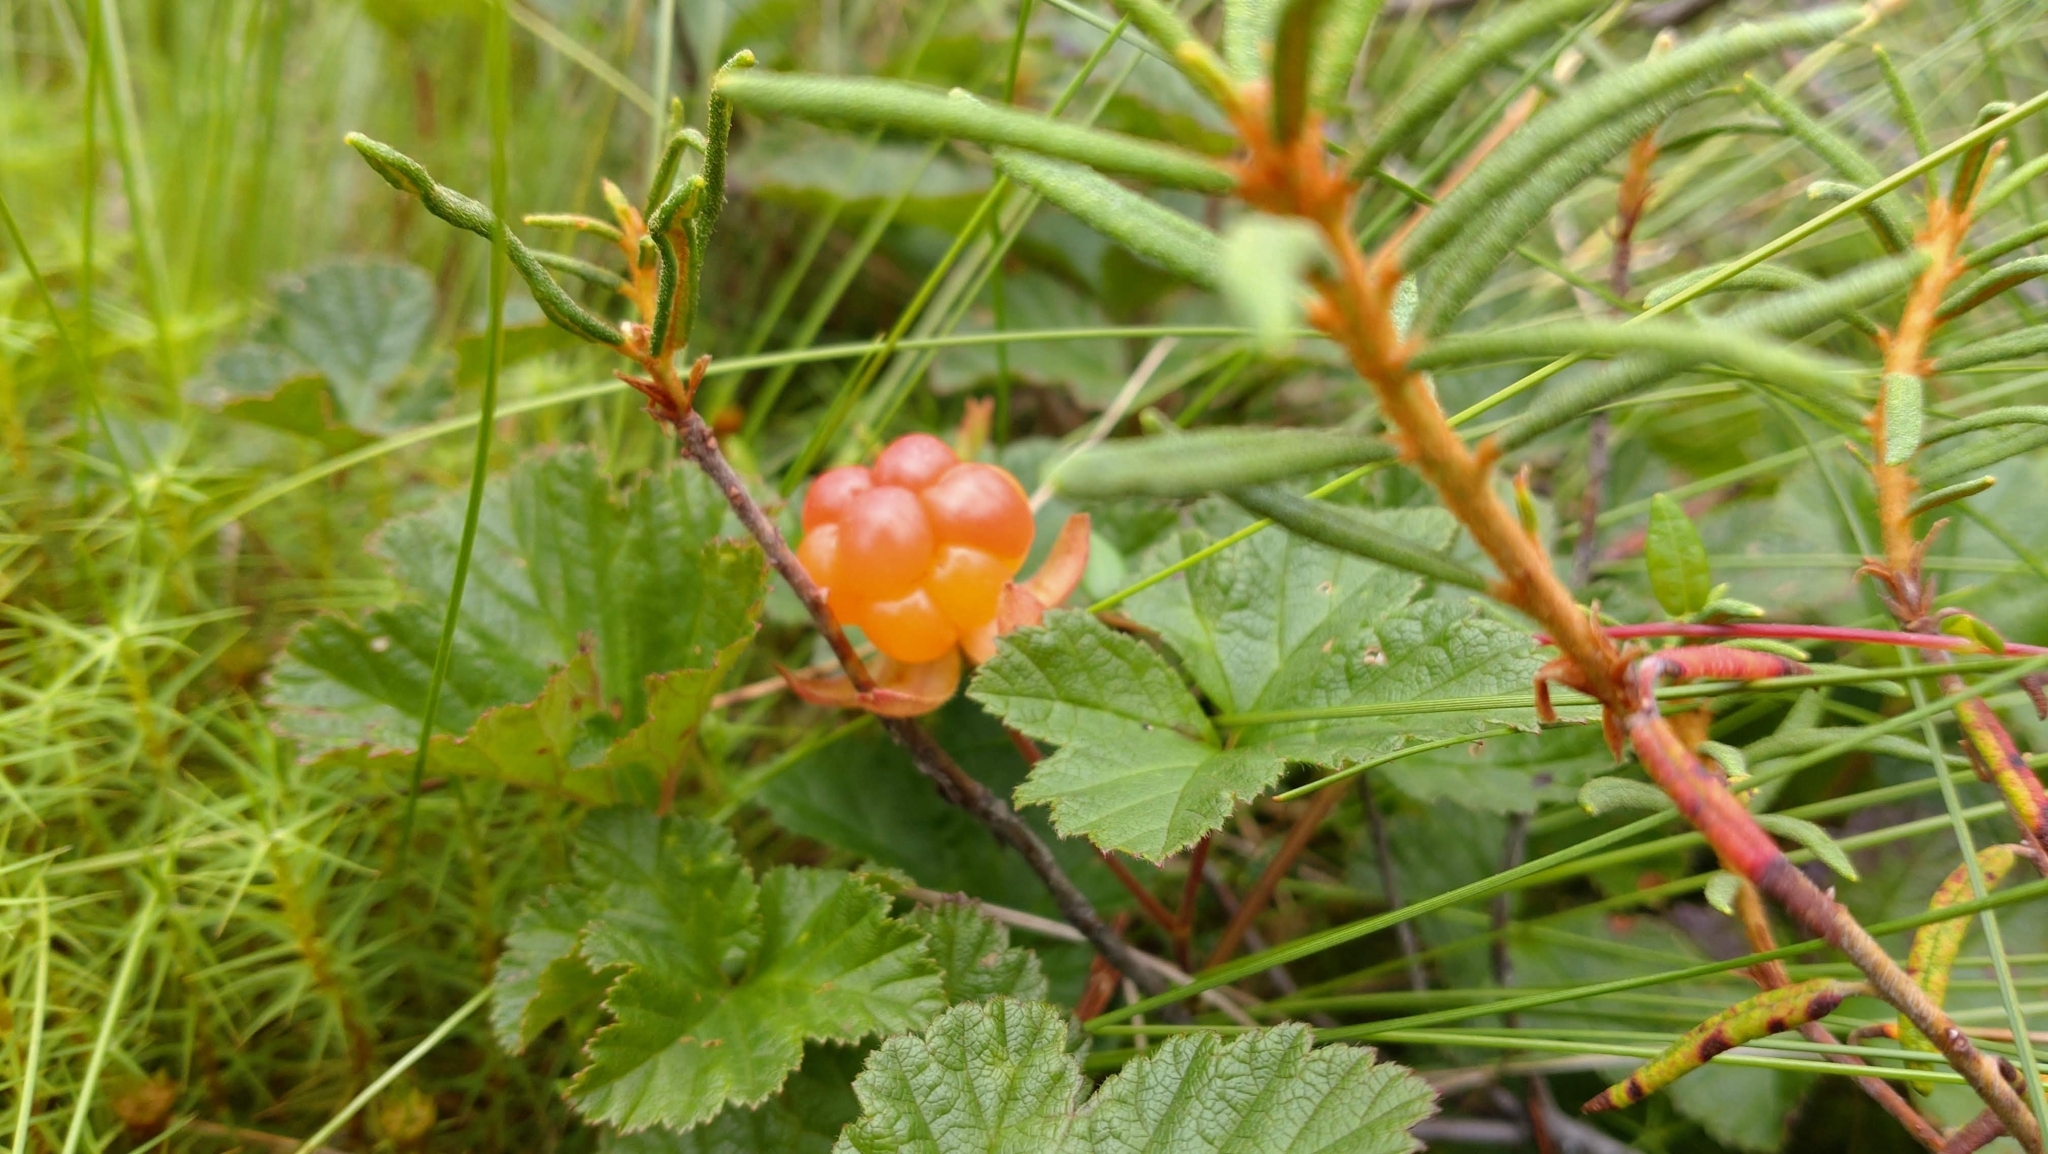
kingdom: Plantae
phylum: Tracheophyta
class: Magnoliopsida
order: Rosales
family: Rosaceae
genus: Rubus
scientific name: Rubus chamaemorus
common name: Cloudberry
